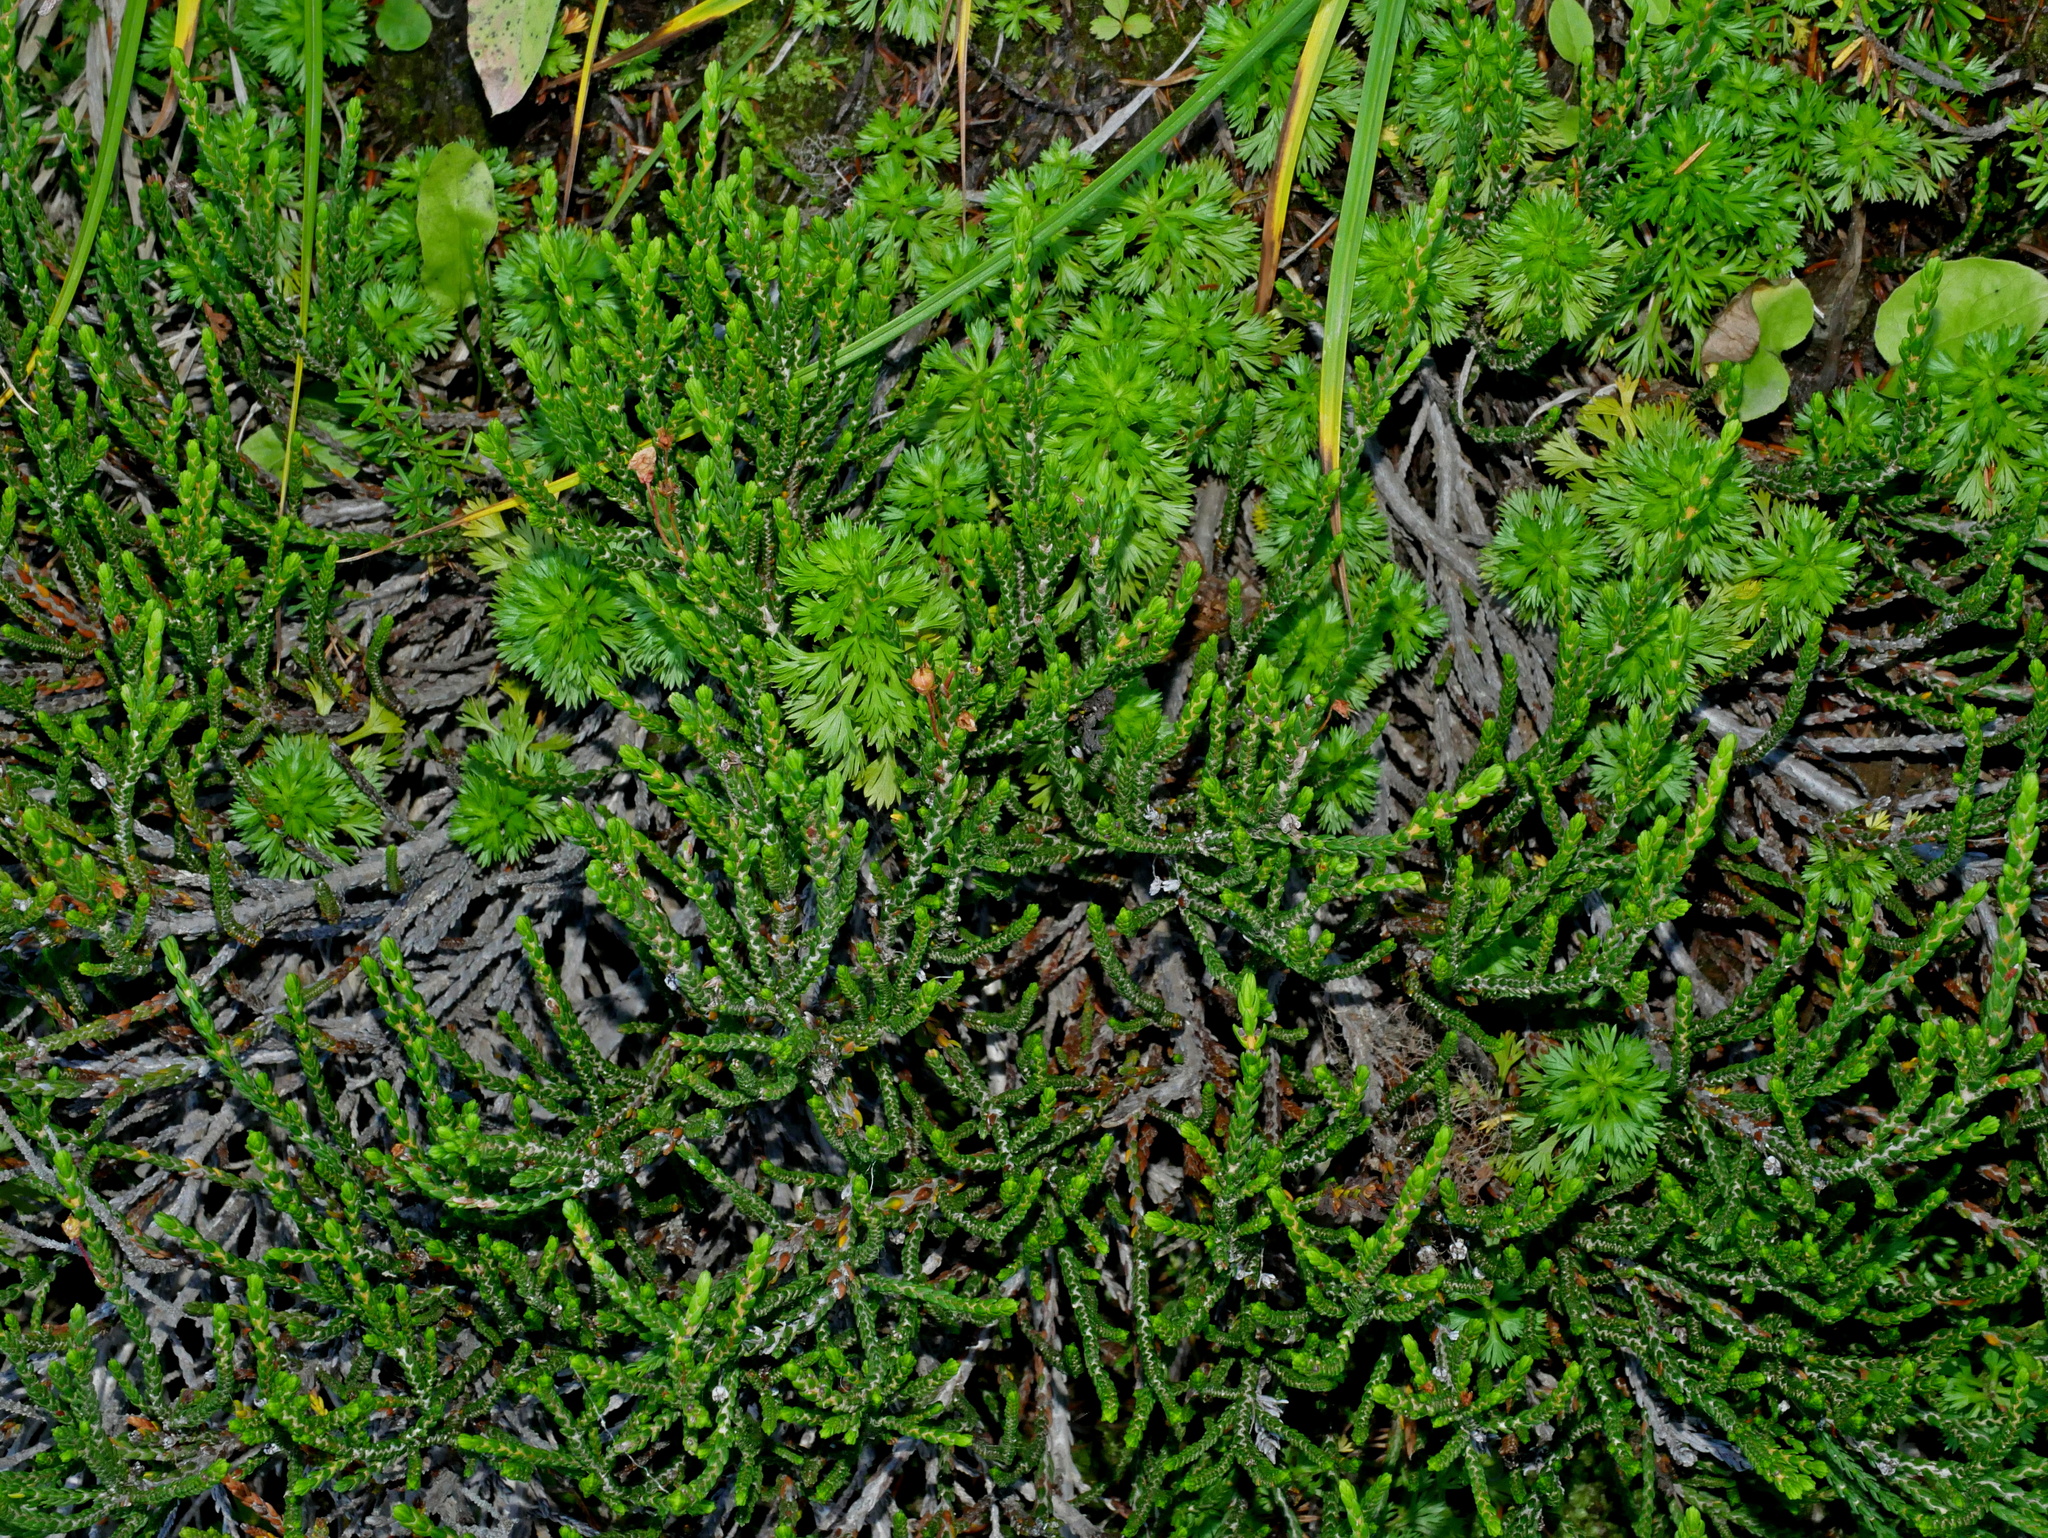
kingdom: Plantae
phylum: Tracheophyta
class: Magnoliopsida
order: Ericales
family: Ericaceae
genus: Cassiope
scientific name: Cassiope mertensiana
